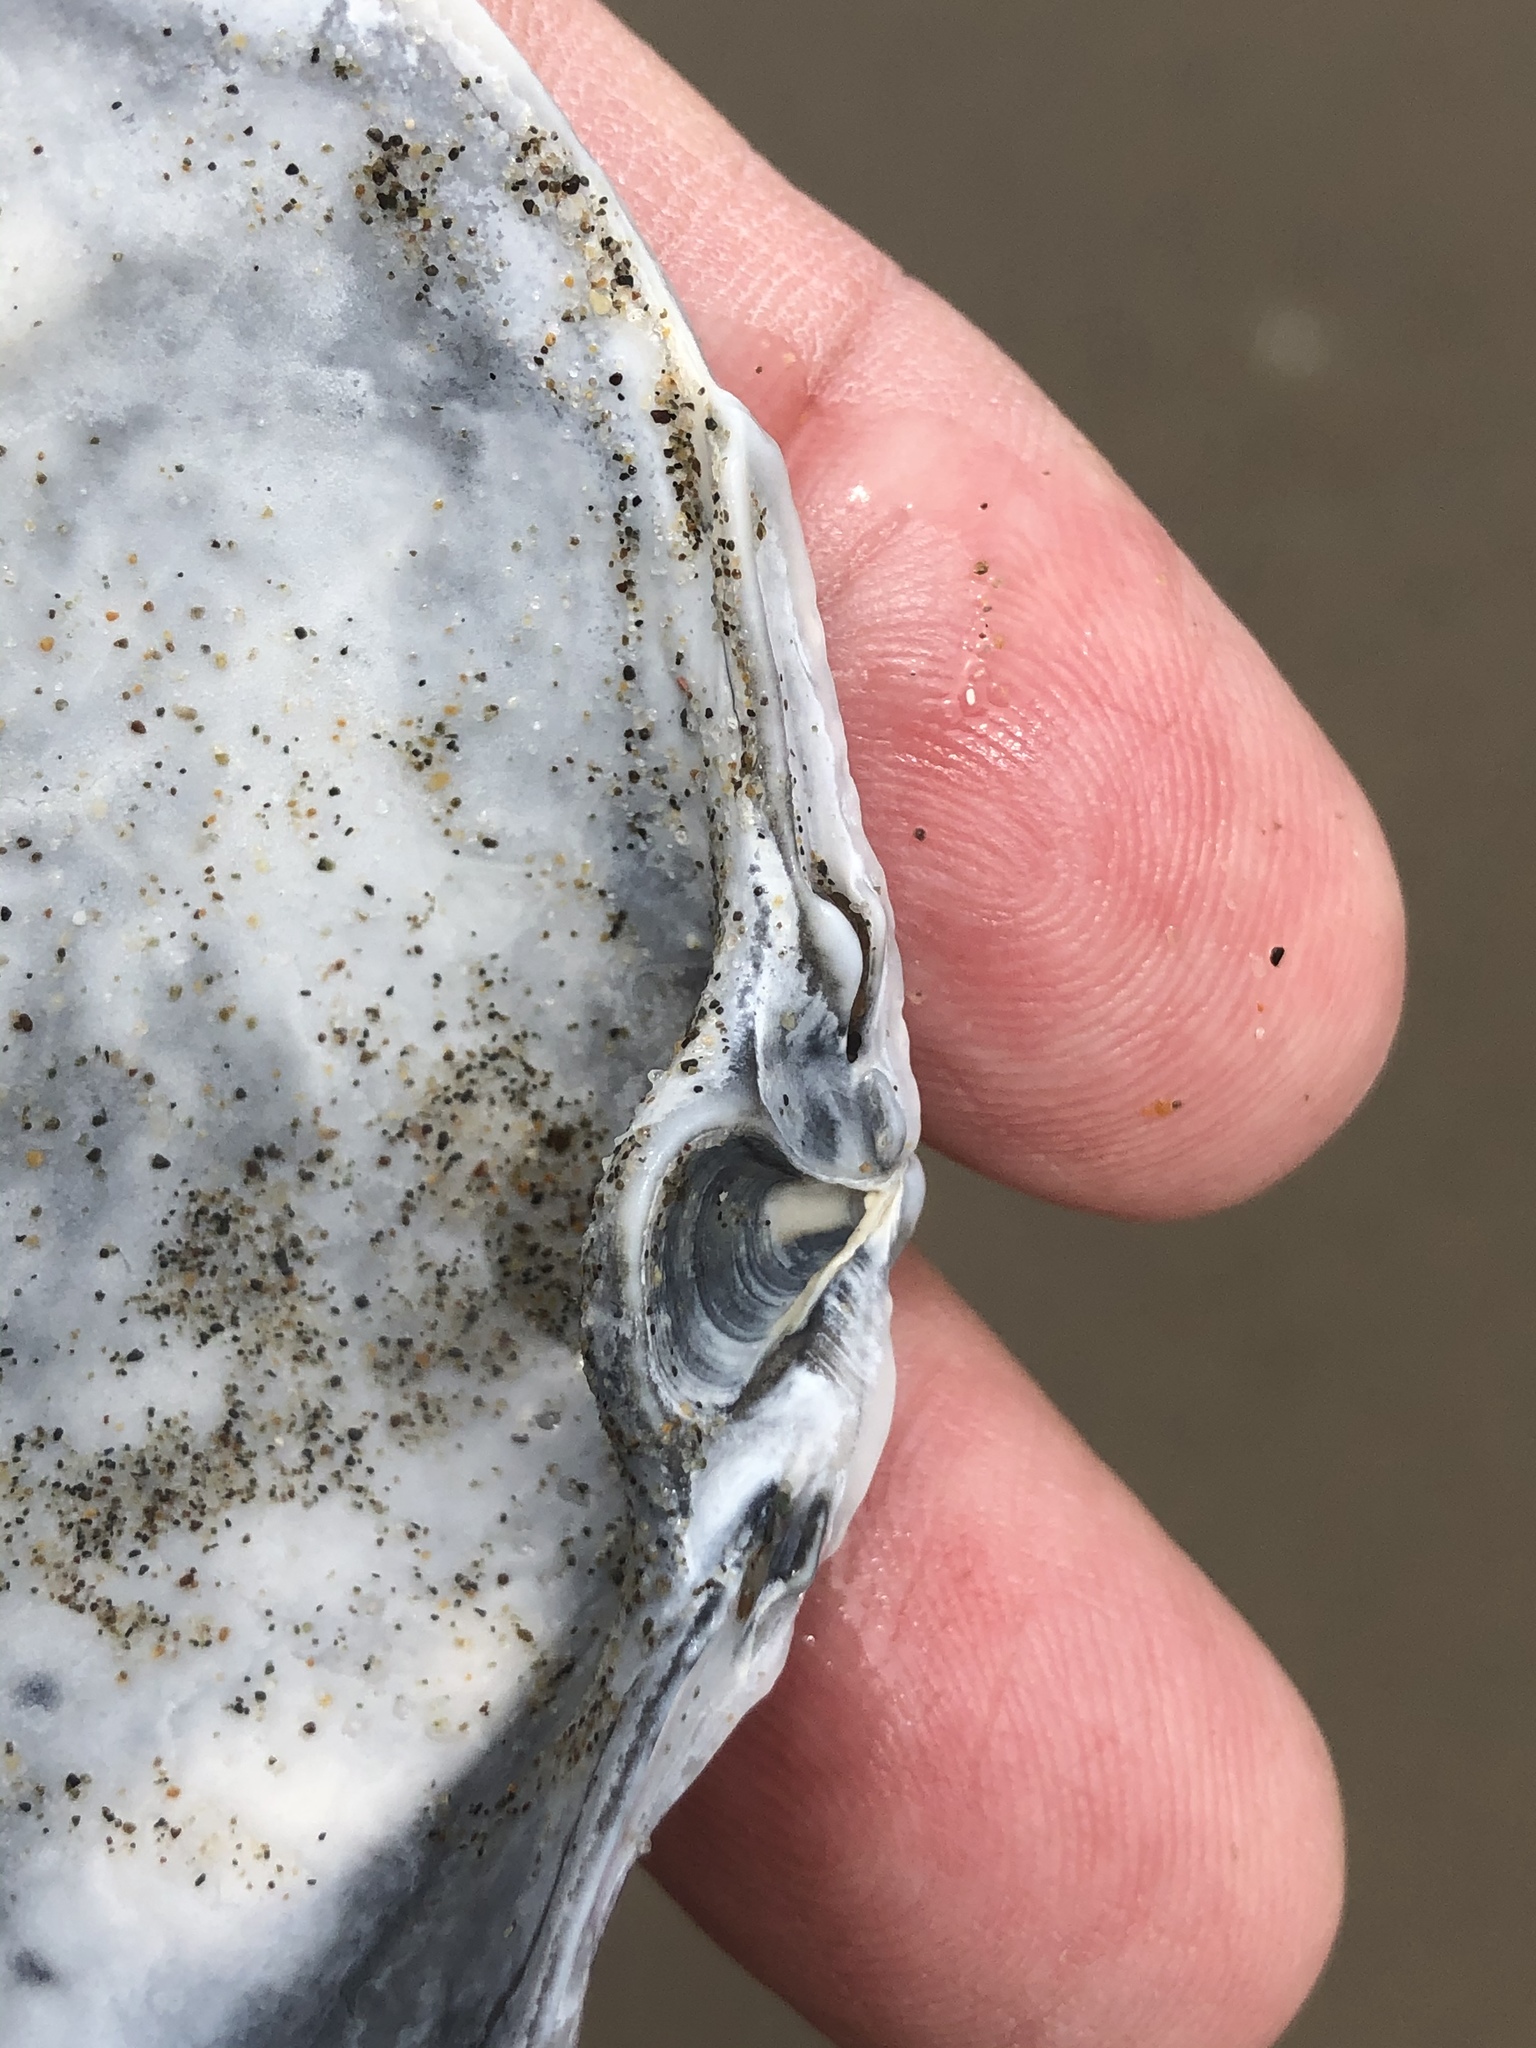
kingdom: Animalia
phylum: Mollusca
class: Bivalvia
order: Venerida
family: Mactridae
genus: Mactromeris
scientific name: Mactromeris catilliformis
